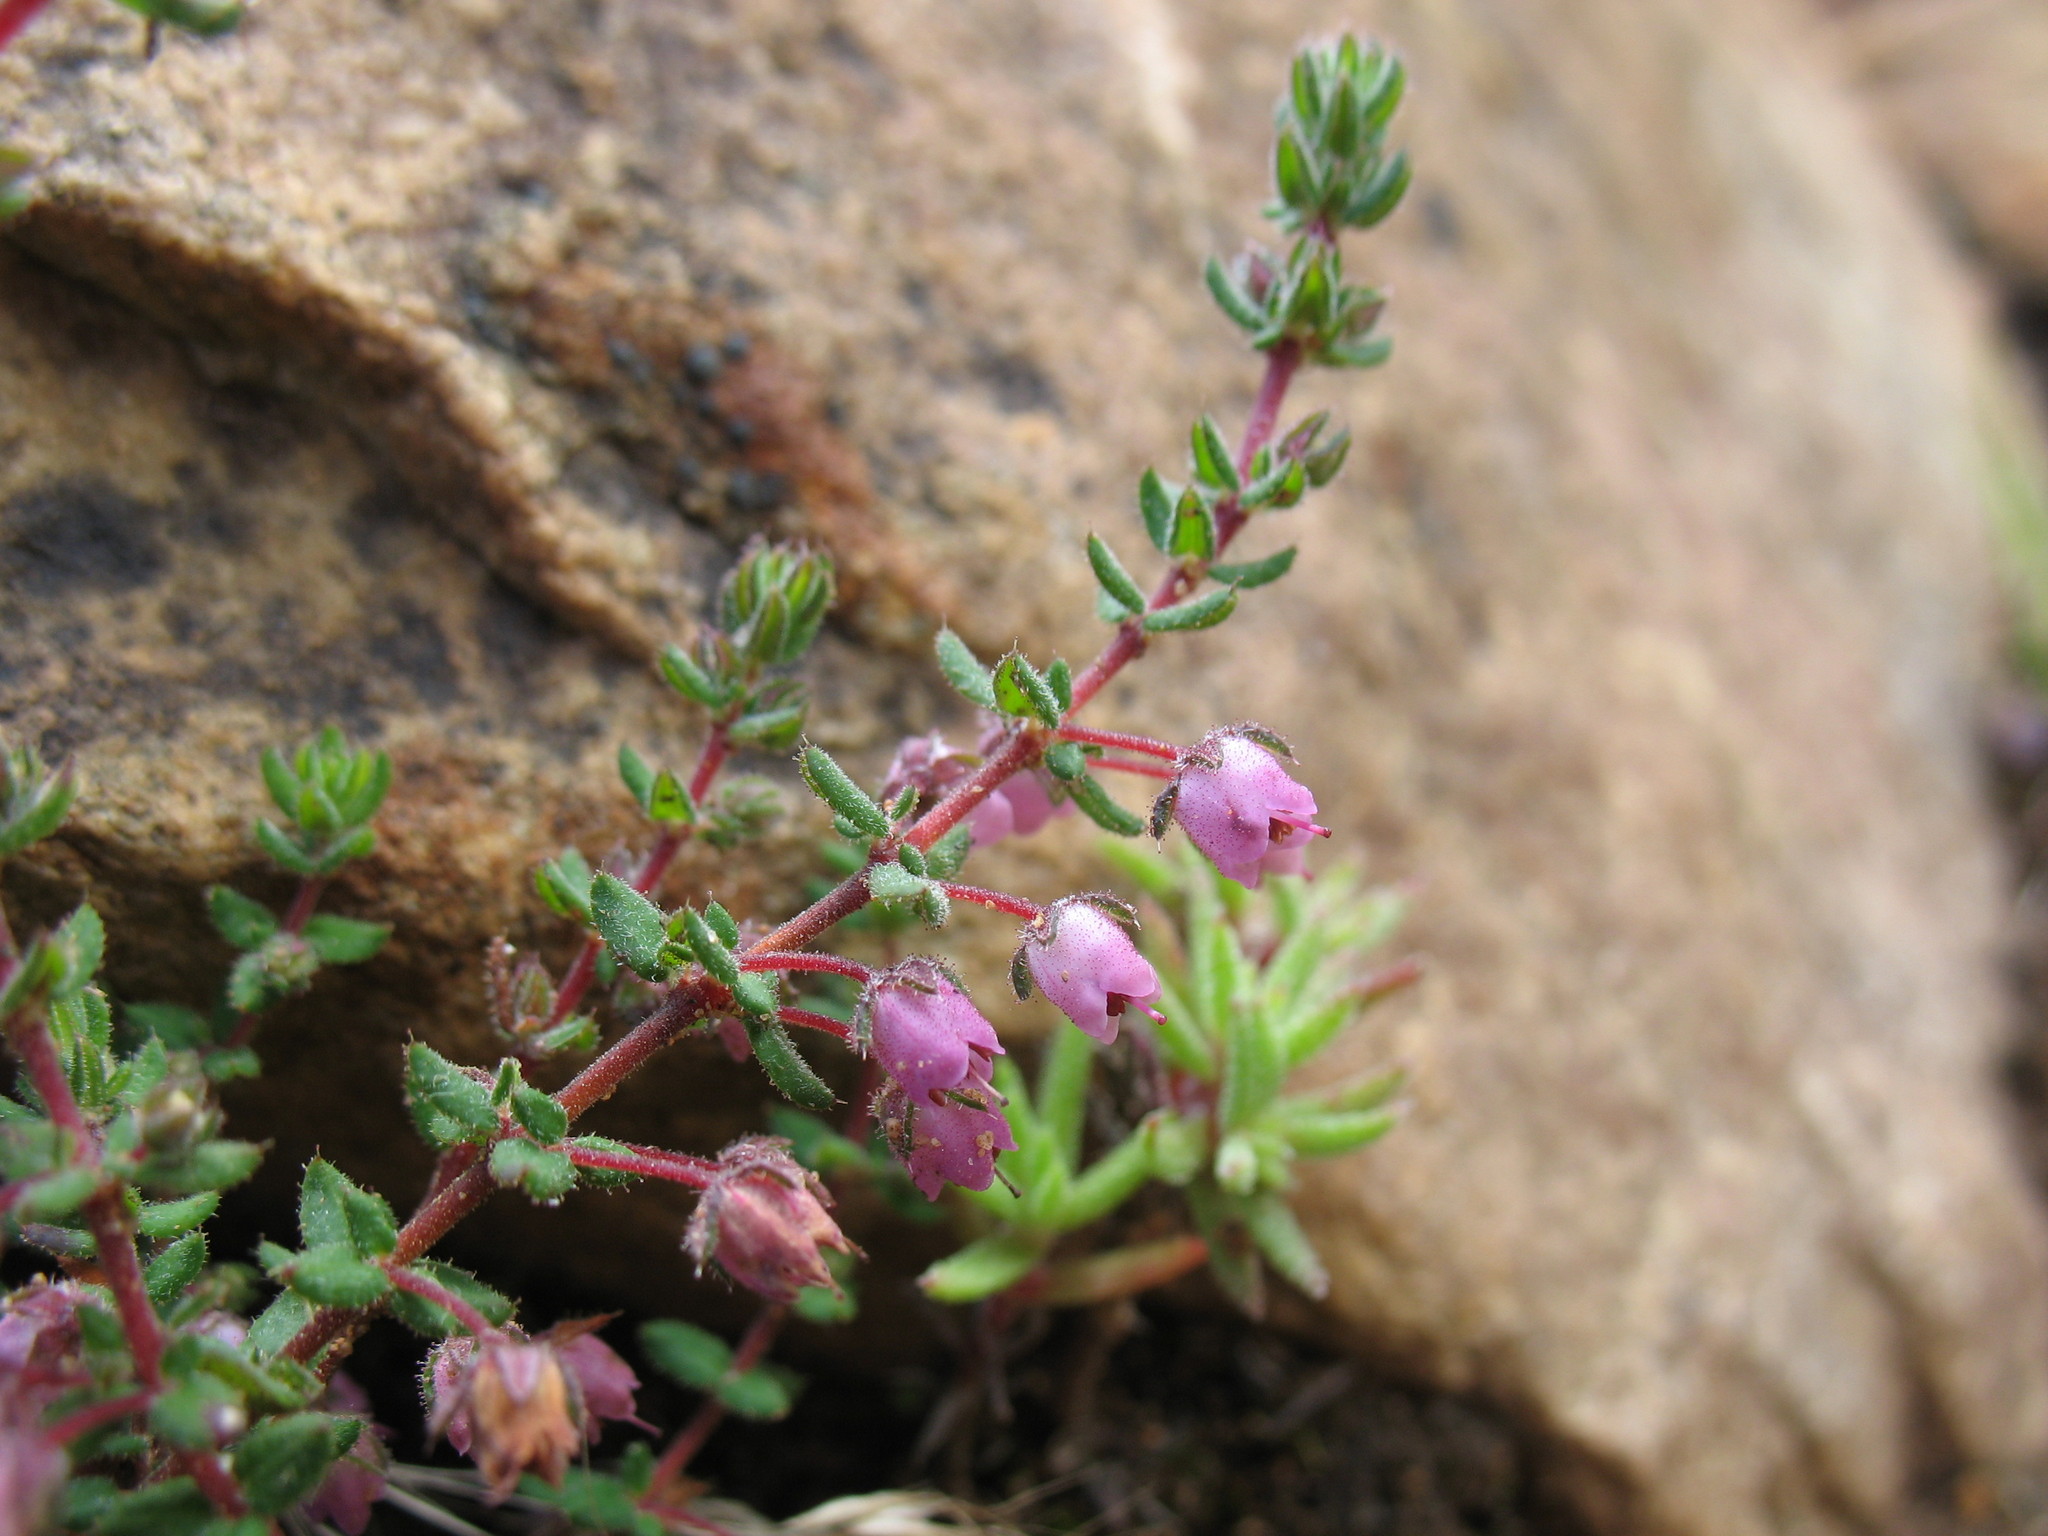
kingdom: Plantae
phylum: Tracheophyta
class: Magnoliopsida
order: Ericales
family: Ericaceae
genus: Erica
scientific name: Erica planifolia
